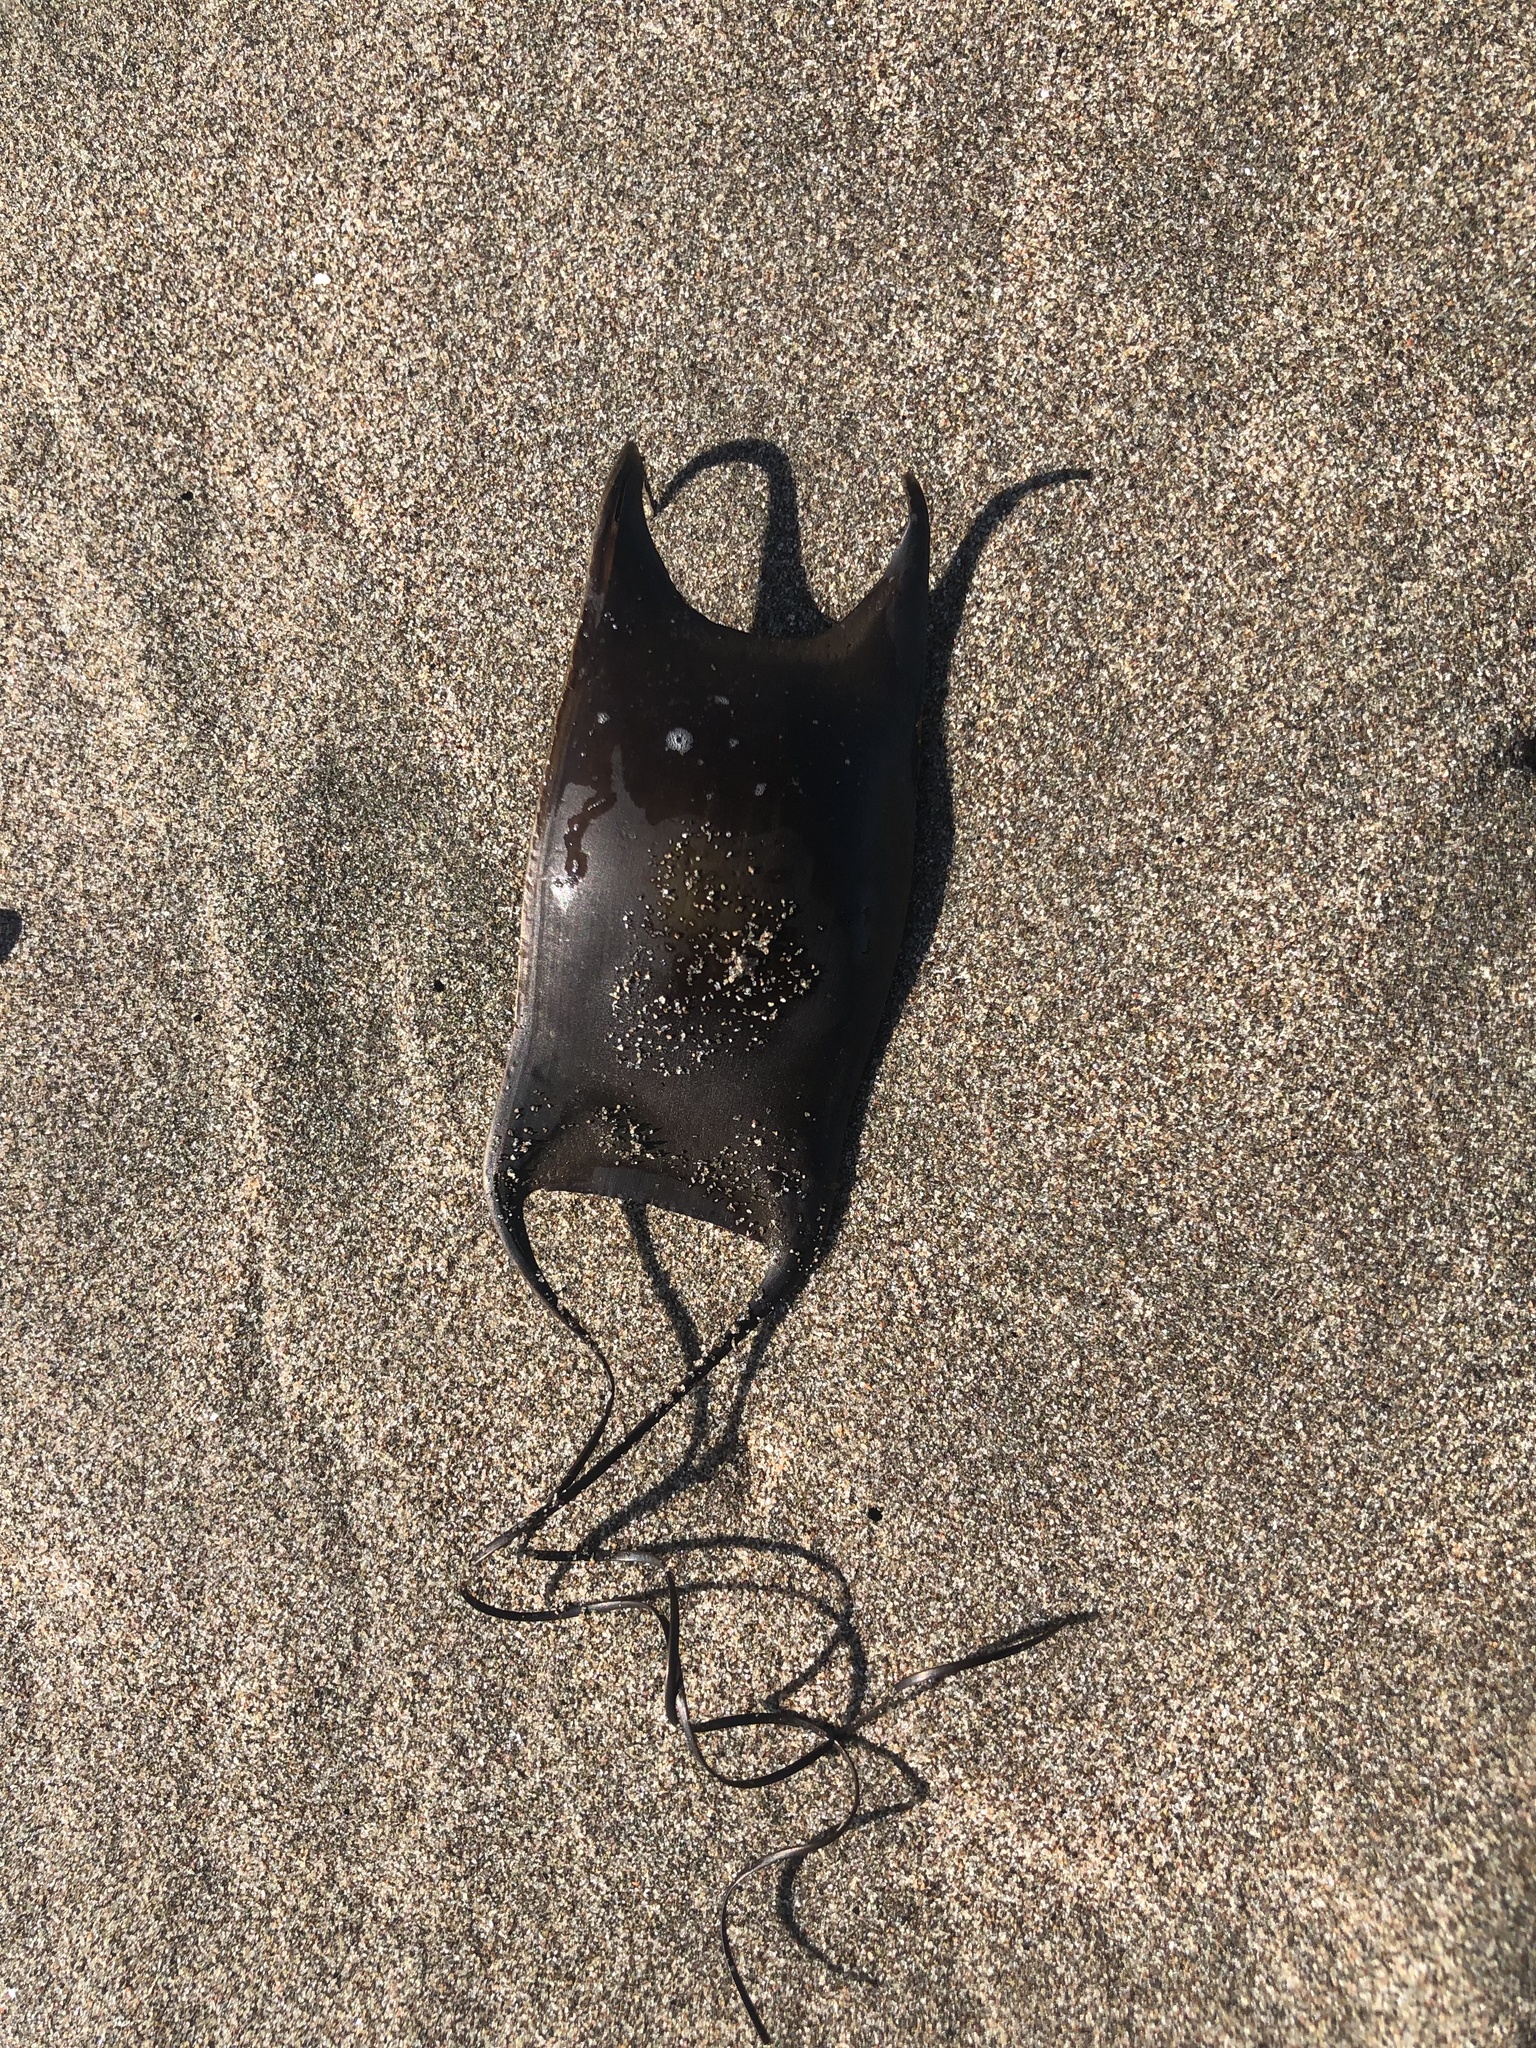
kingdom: Animalia
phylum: Chordata
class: Elasmobranchii
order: Rajiformes
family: Arhynchobatidae
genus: Sympterygia
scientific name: Sympterygia brevicaudata
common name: Shorttail fanskate
